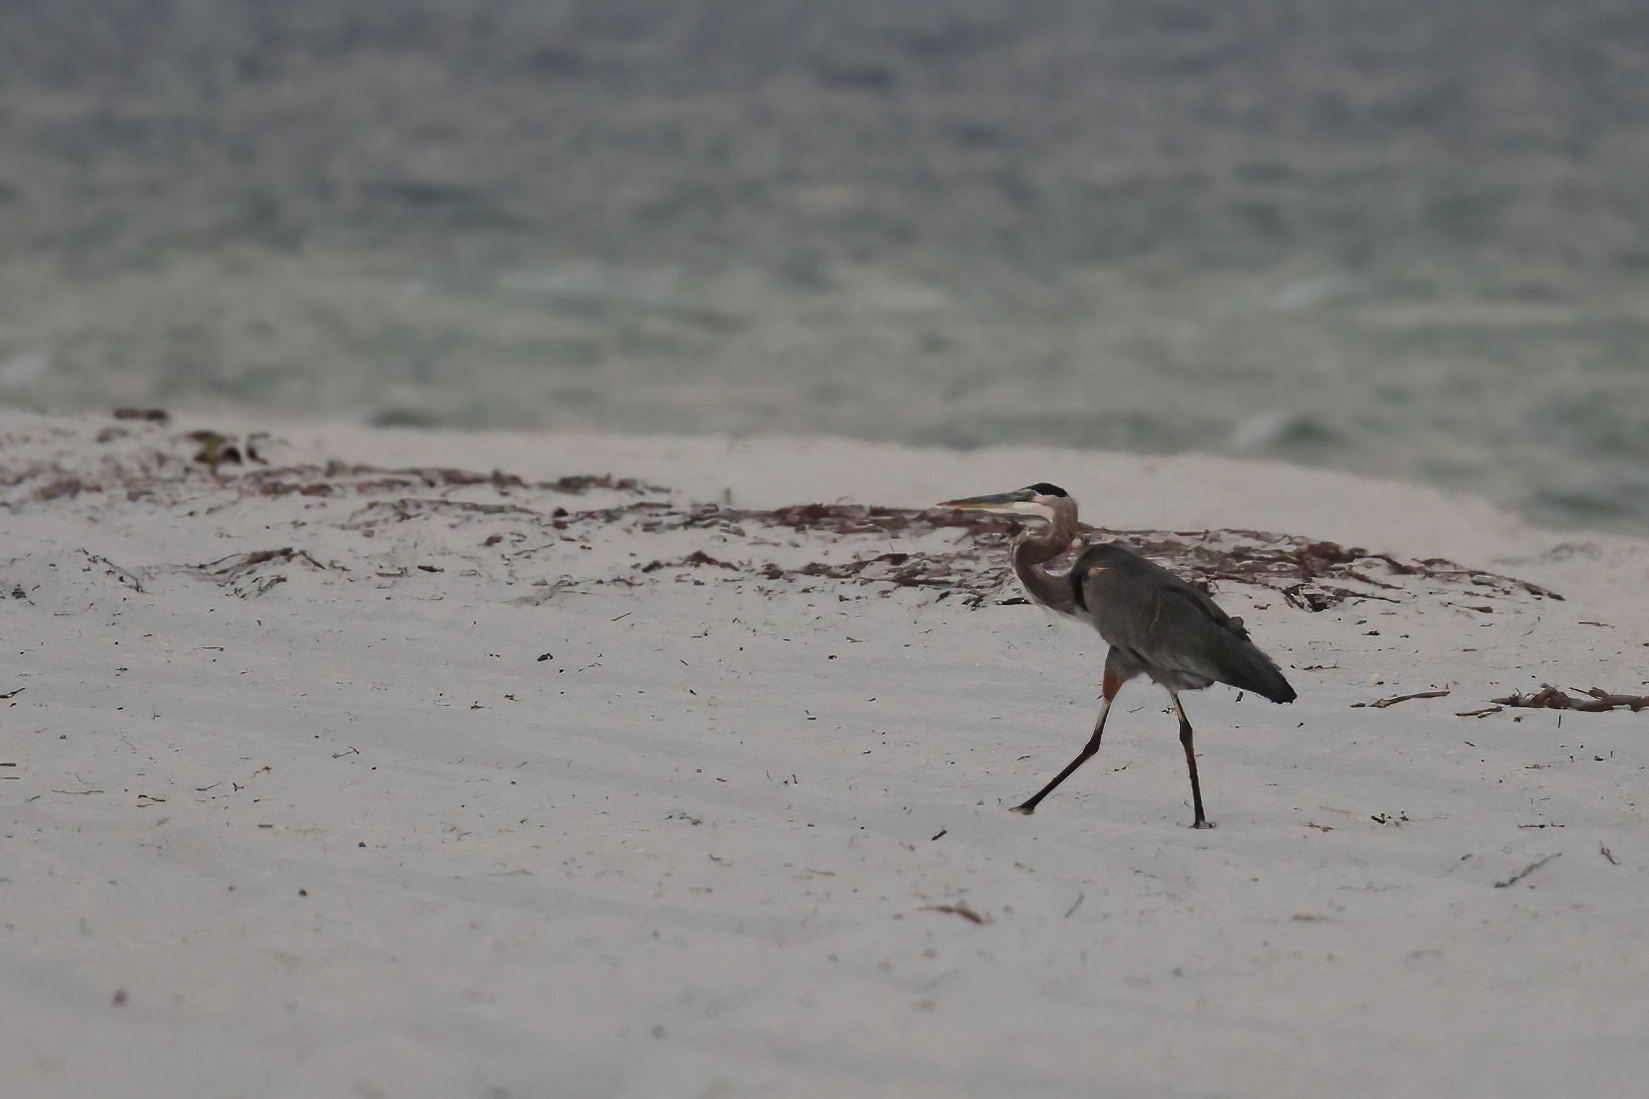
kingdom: Animalia
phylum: Chordata
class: Aves
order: Pelecaniformes
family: Ardeidae
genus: Ardea
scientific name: Ardea herodias
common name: Great blue heron
